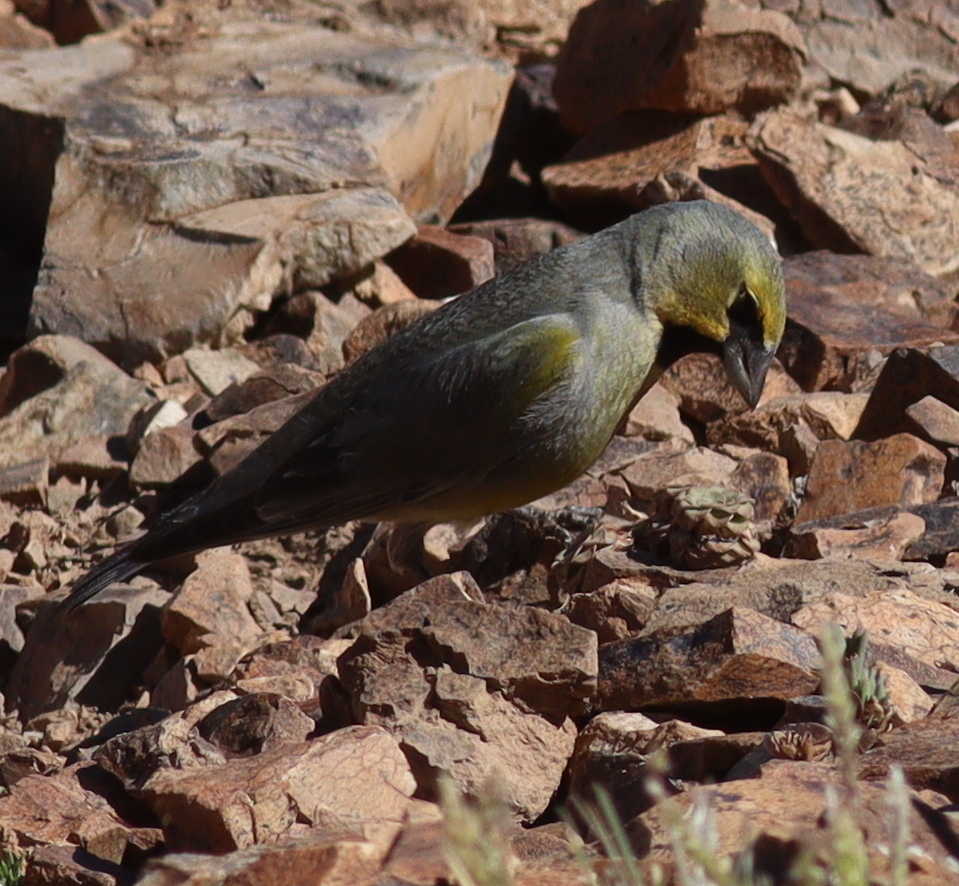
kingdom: Animalia
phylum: Chordata
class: Aves
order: Passeriformes
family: Thraupidae
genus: Melanodera
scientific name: Melanodera xanthogramma
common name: Yellow-bridled finch
